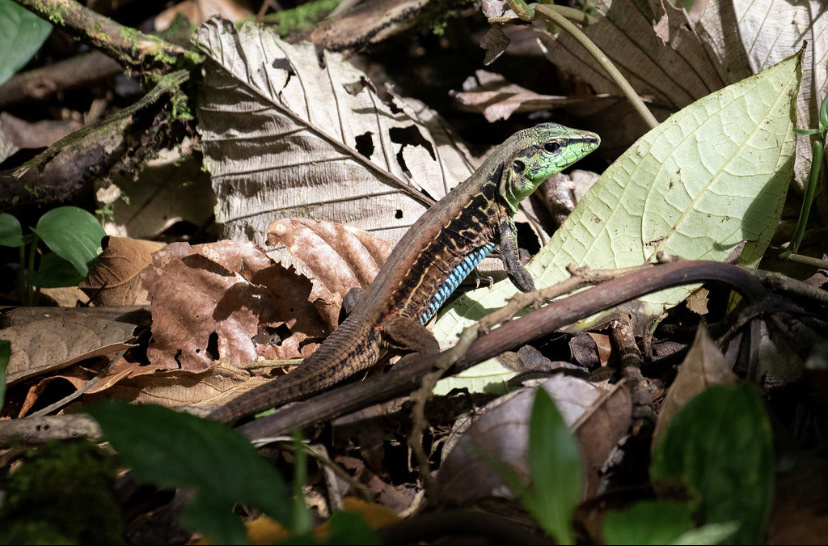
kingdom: Animalia
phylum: Chordata
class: Squamata
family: Teiidae
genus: Holcosus
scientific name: Holcosus festivus
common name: Middle american ameiva
